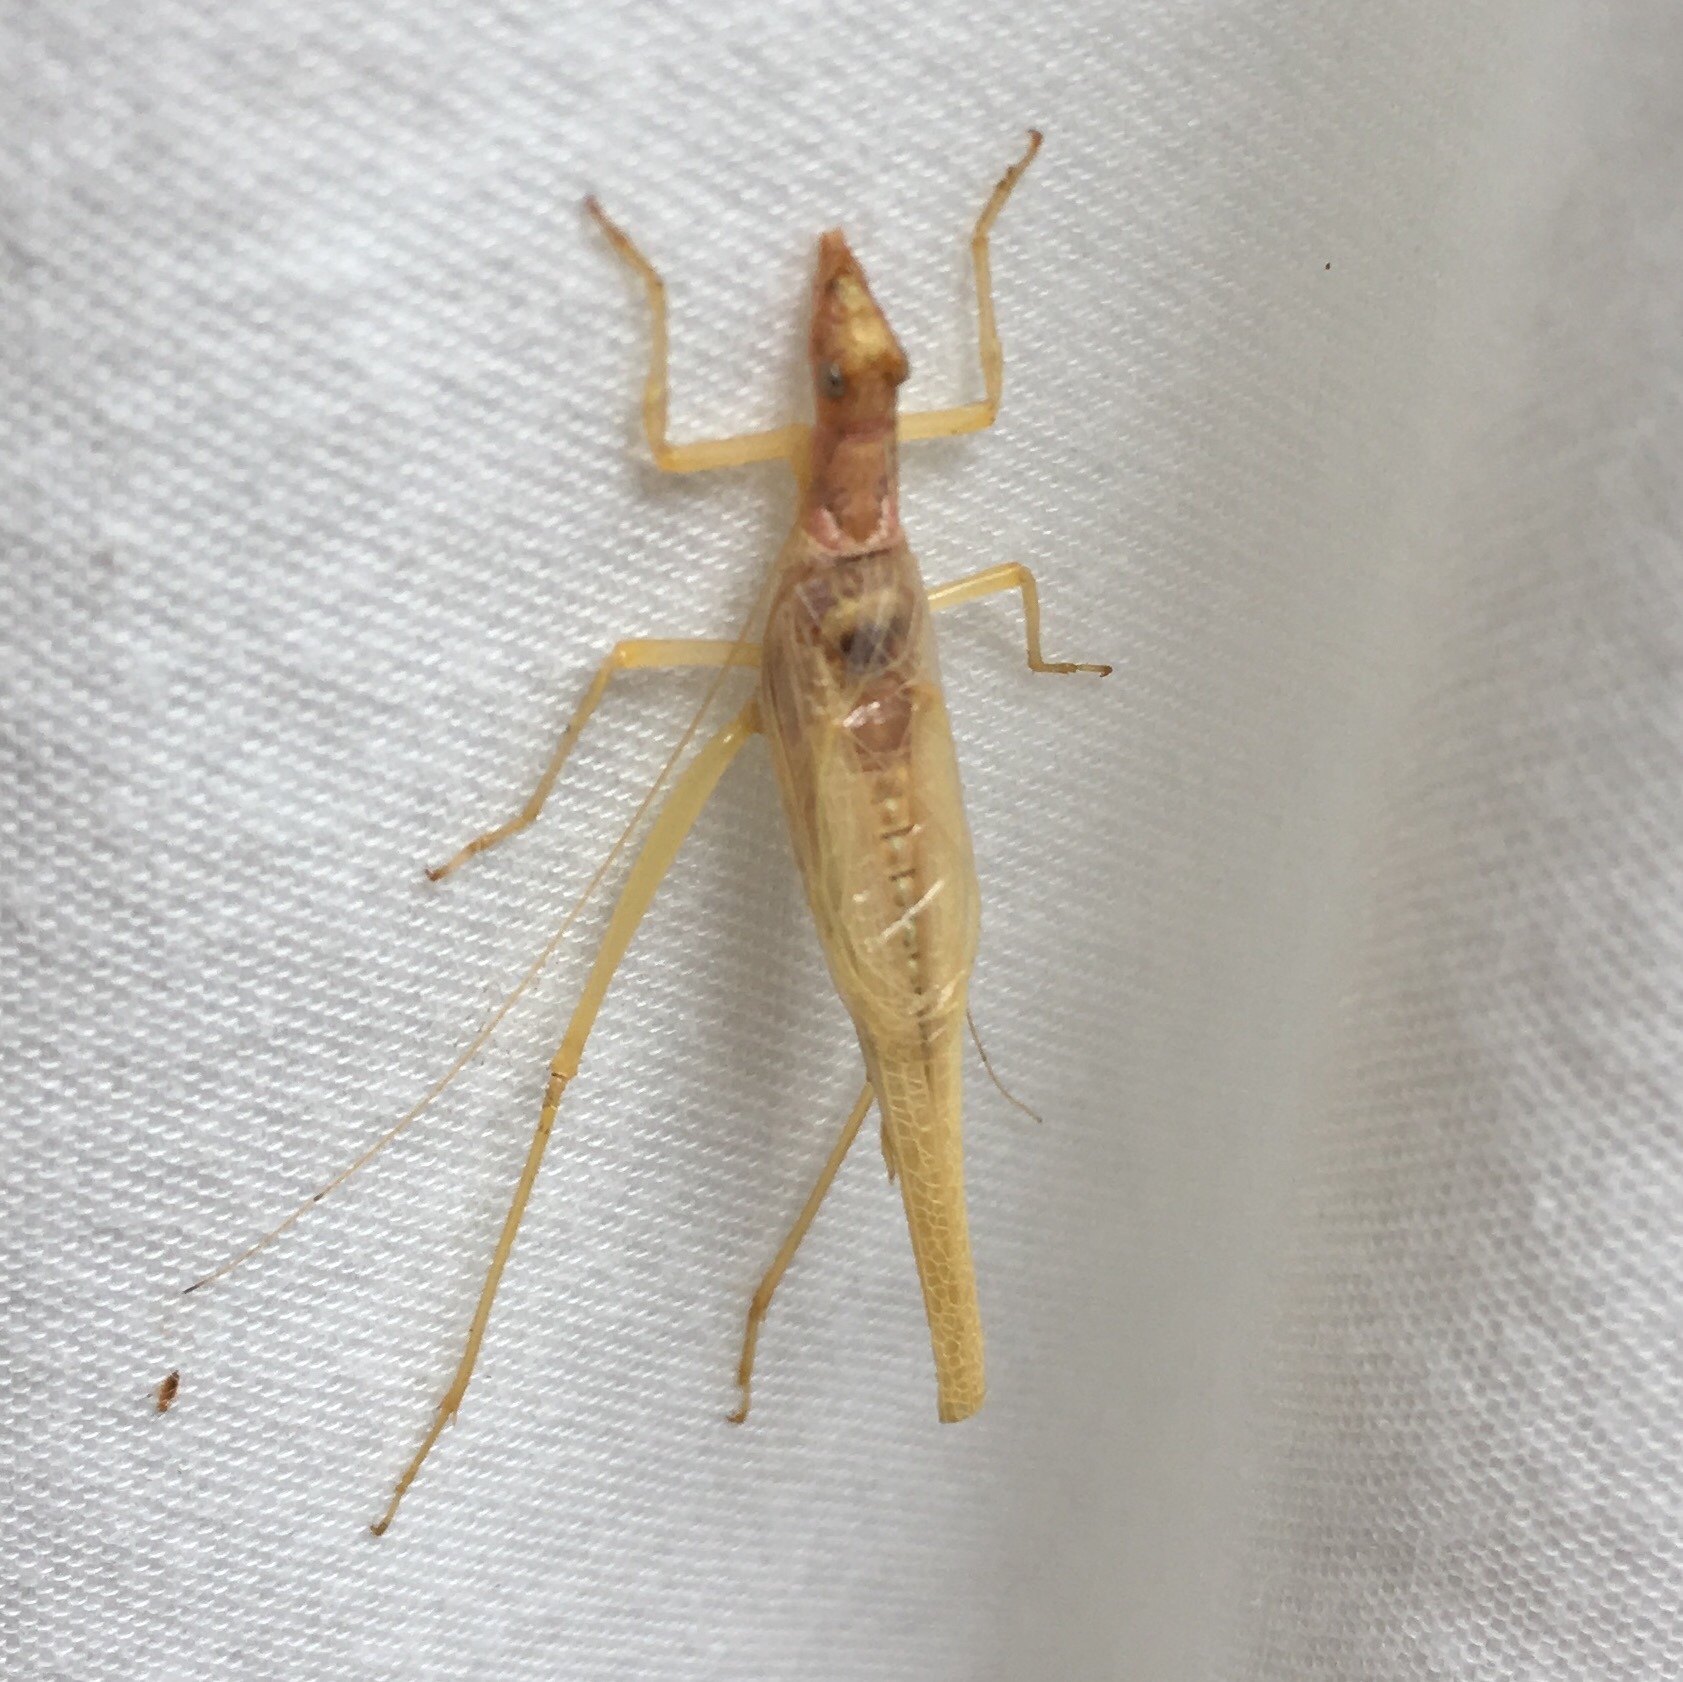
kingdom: Animalia
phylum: Arthropoda
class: Insecta
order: Orthoptera
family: Gryllidae
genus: Neoxabea
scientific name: Neoxabea bipunctata
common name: Two-spotted tree cricket
